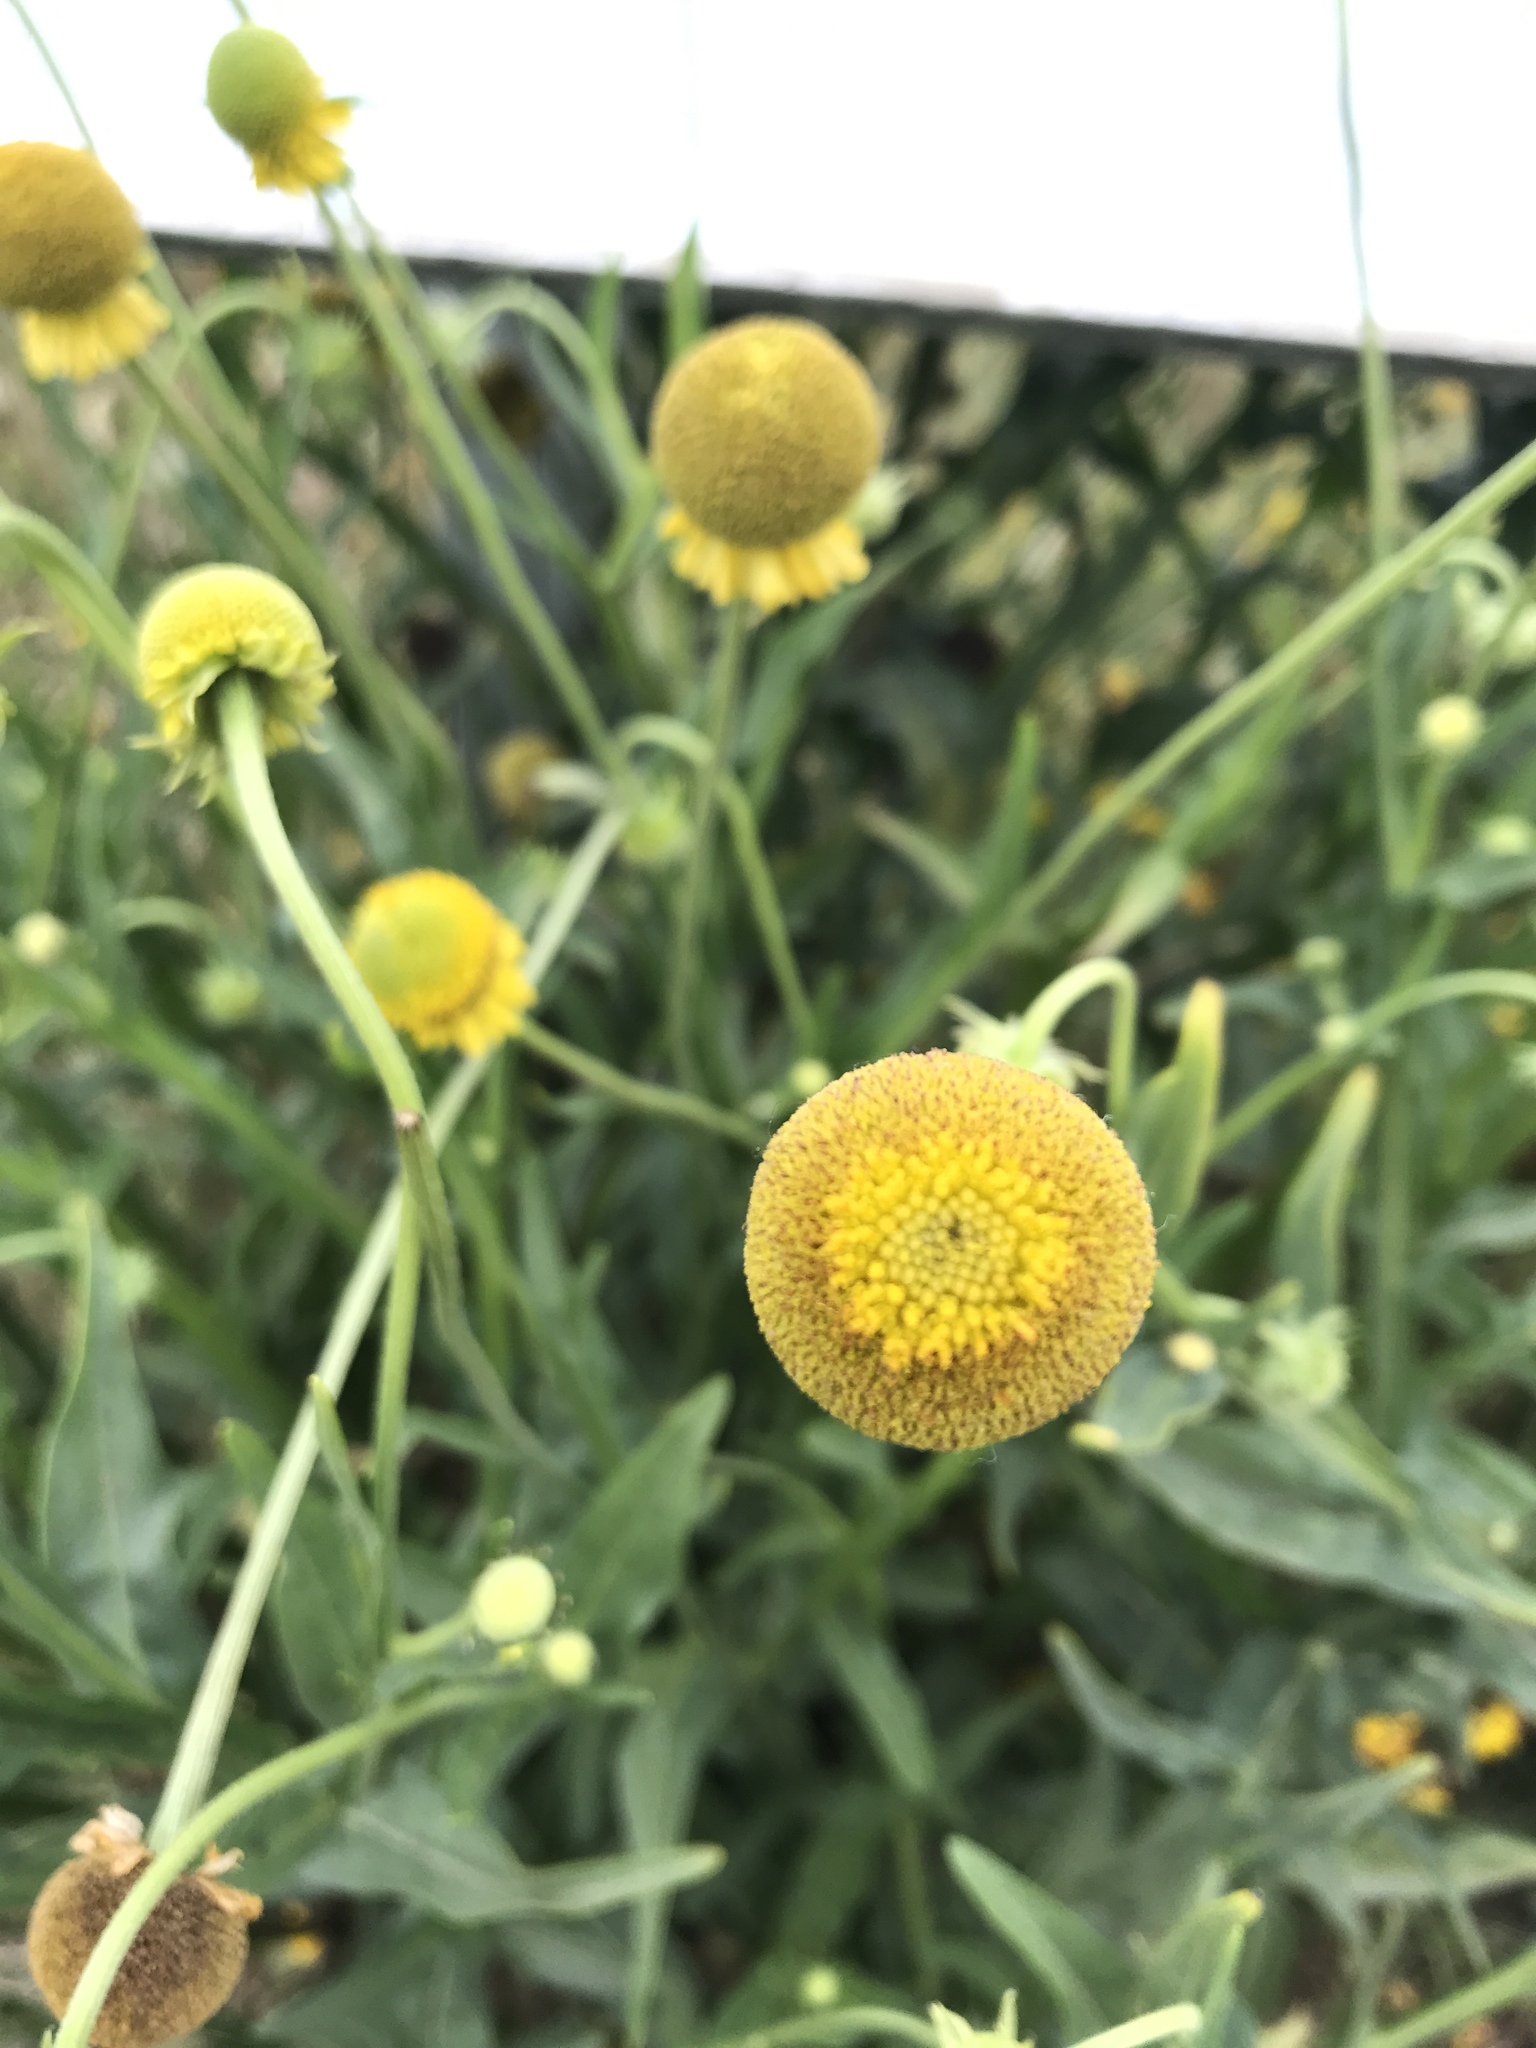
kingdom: Plantae
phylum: Tracheophyta
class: Magnoliopsida
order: Asterales
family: Asteraceae
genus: Helenium
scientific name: Helenium puberulum
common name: Sneezewort
